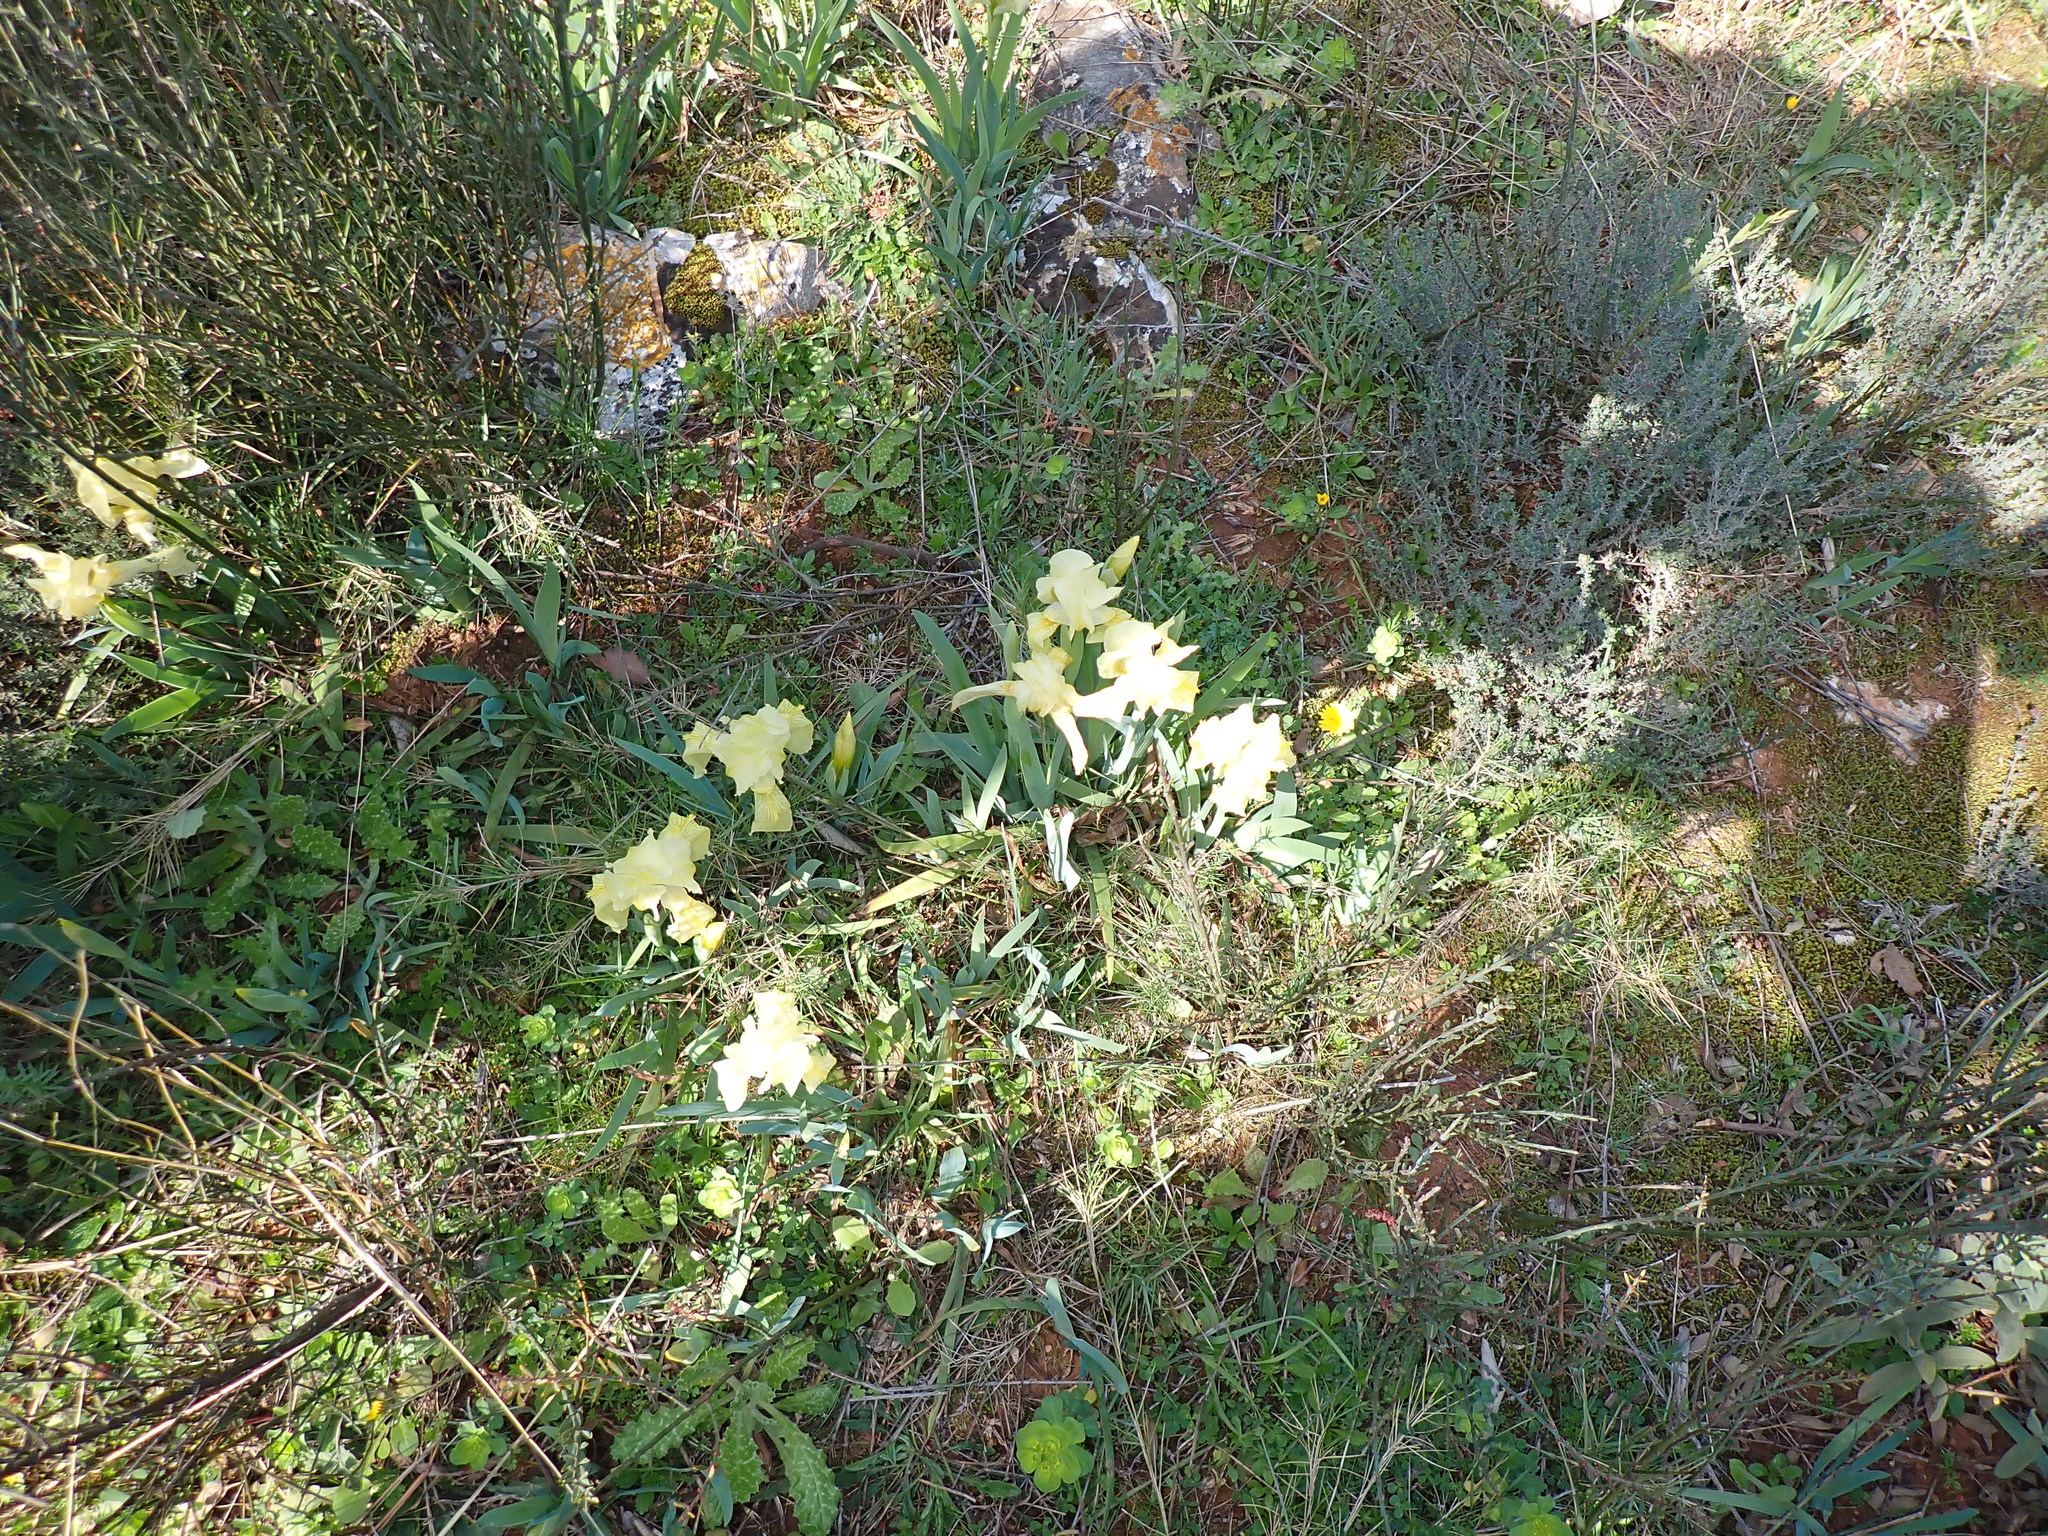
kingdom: Plantae
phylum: Tracheophyta
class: Liliopsida
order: Asparagales
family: Iridaceae
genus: Iris
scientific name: Iris lutescens
